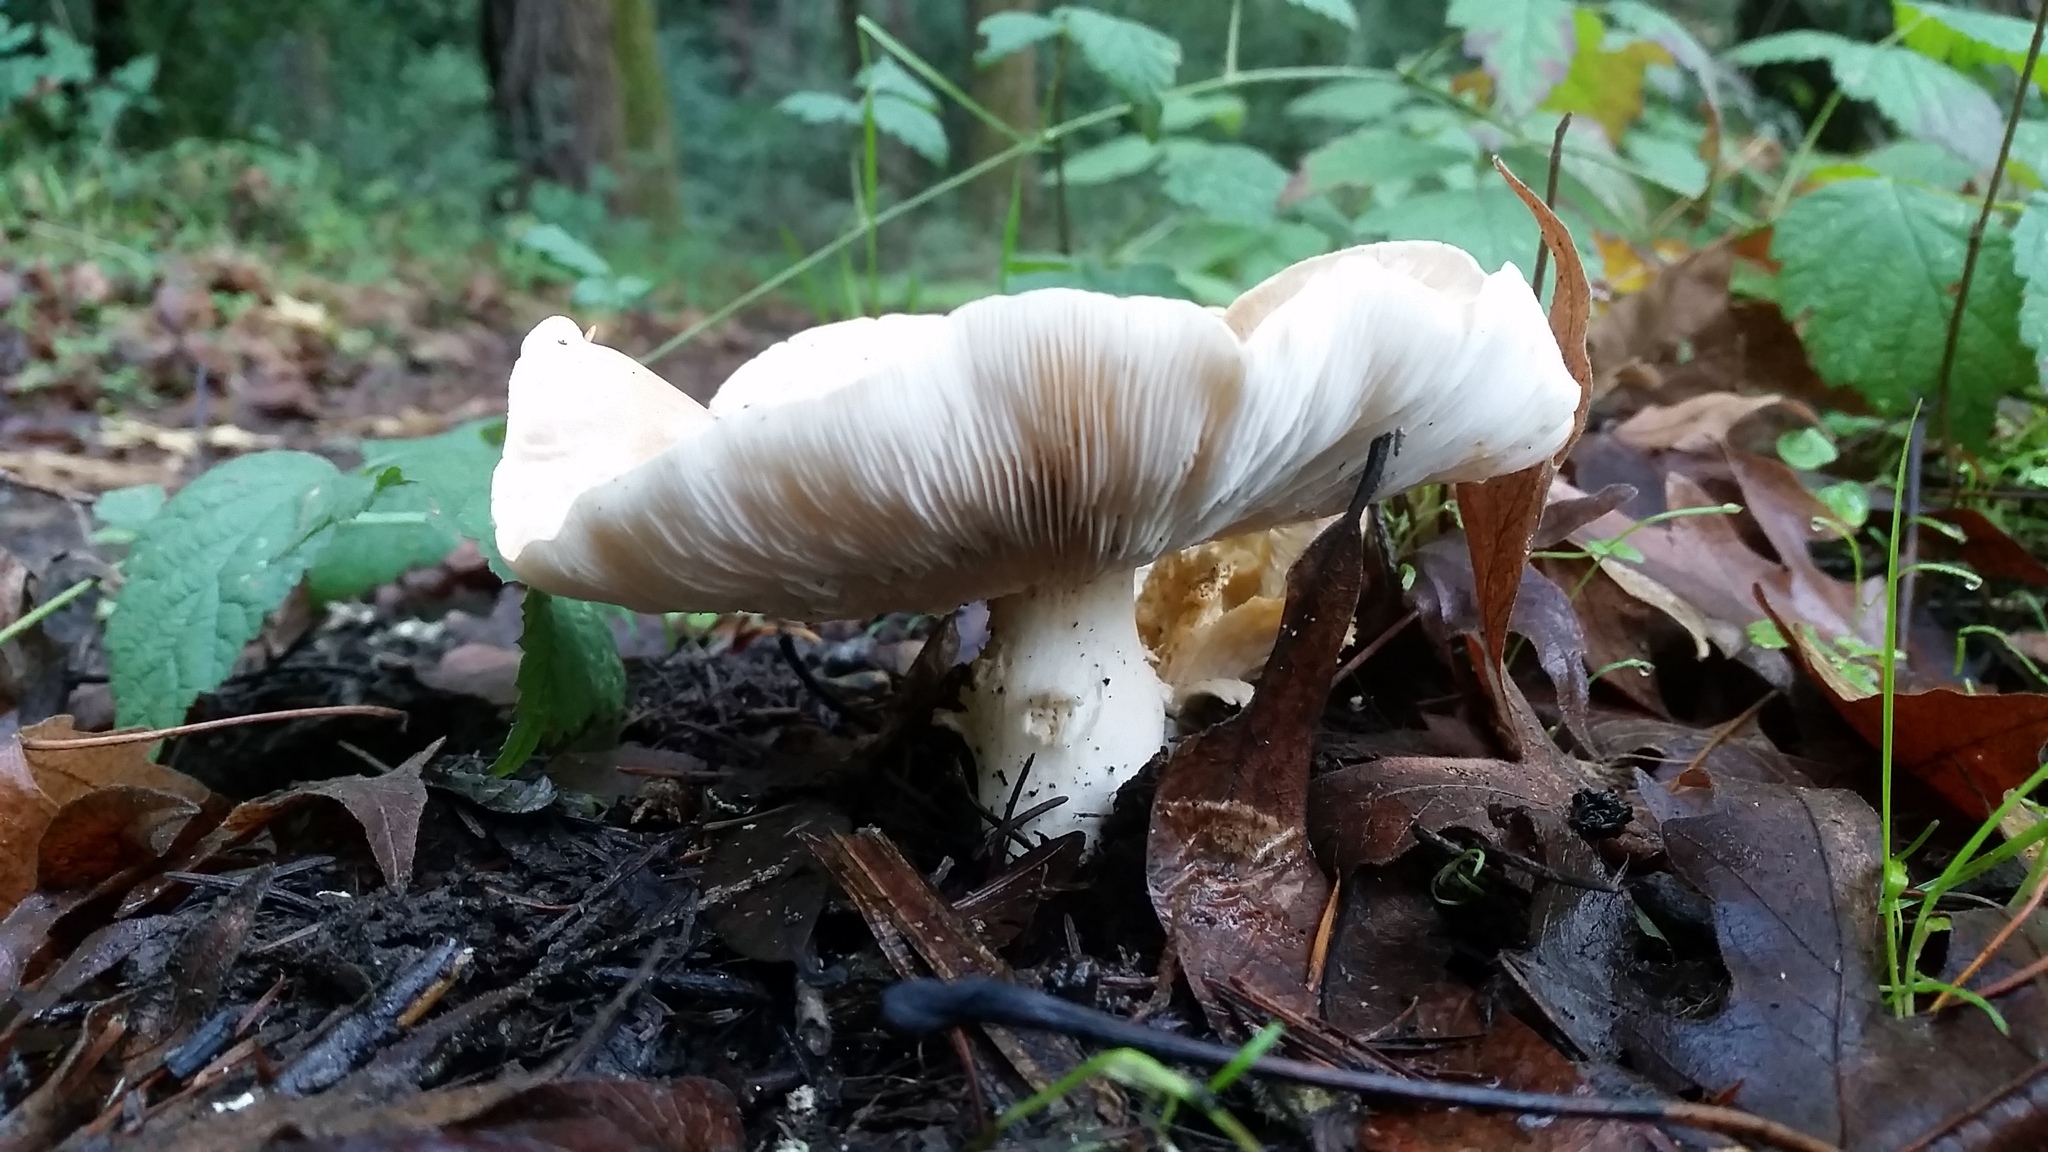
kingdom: Fungi
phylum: Basidiomycota
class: Agaricomycetes
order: Agaricales
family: Tricholomataceae
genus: Leucopaxillus
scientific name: Leucopaxillus gentianeus
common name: Bitter funnel
